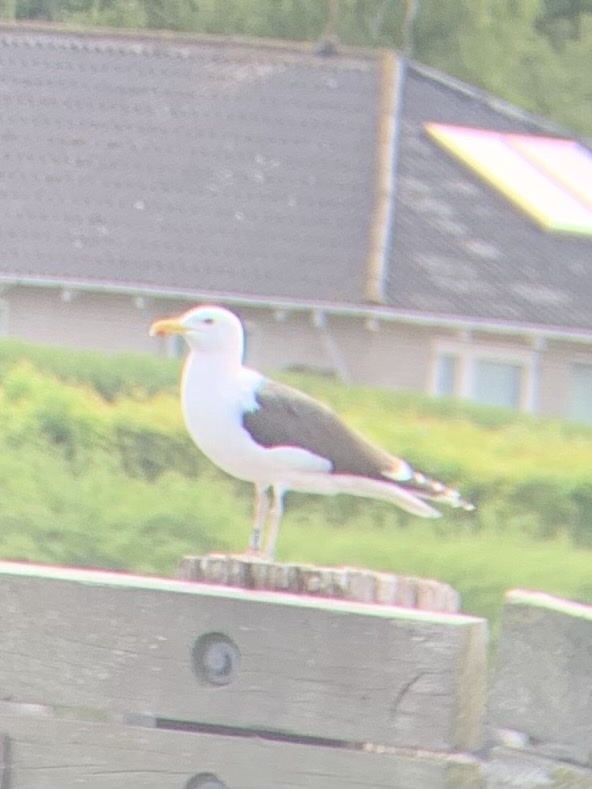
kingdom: Animalia
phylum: Chordata
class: Aves
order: Charadriiformes
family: Laridae
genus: Larus
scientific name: Larus marinus
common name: Great black-backed gull
